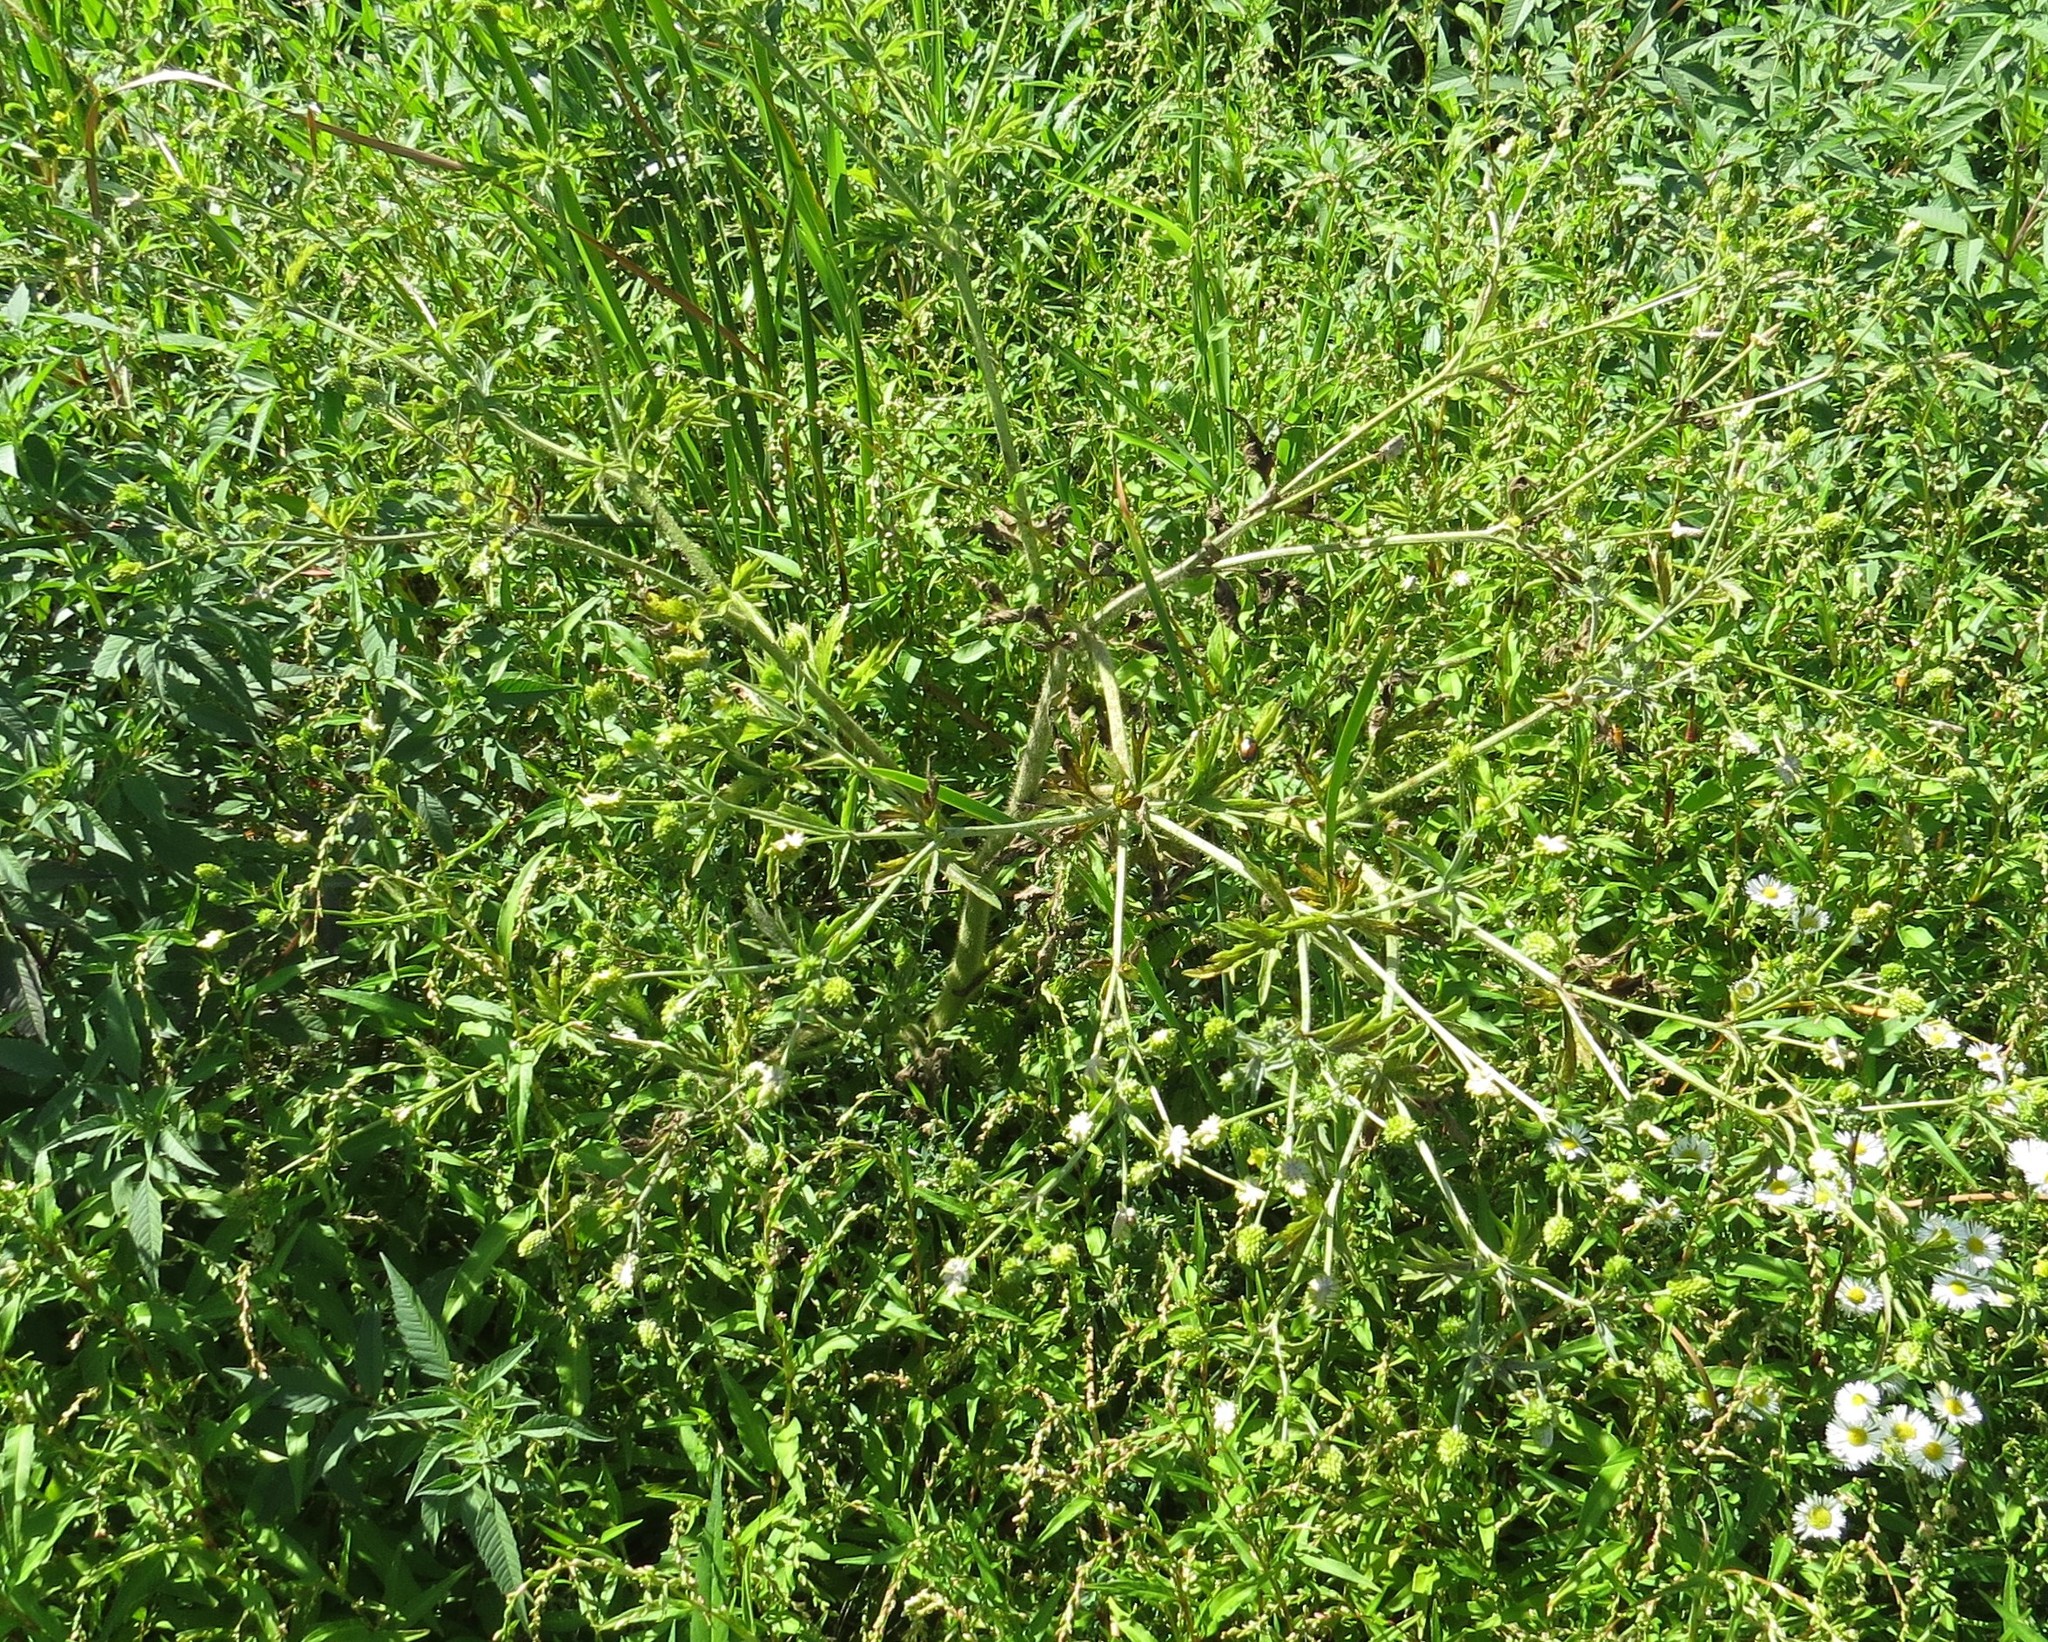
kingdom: Plantae
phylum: Tracheophyta
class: Magnoliopsida
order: Ranunculales
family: Ranunculaceae
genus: Ranunculus
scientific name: Ranunculus pensylvanicus
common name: Bristly buttercup
